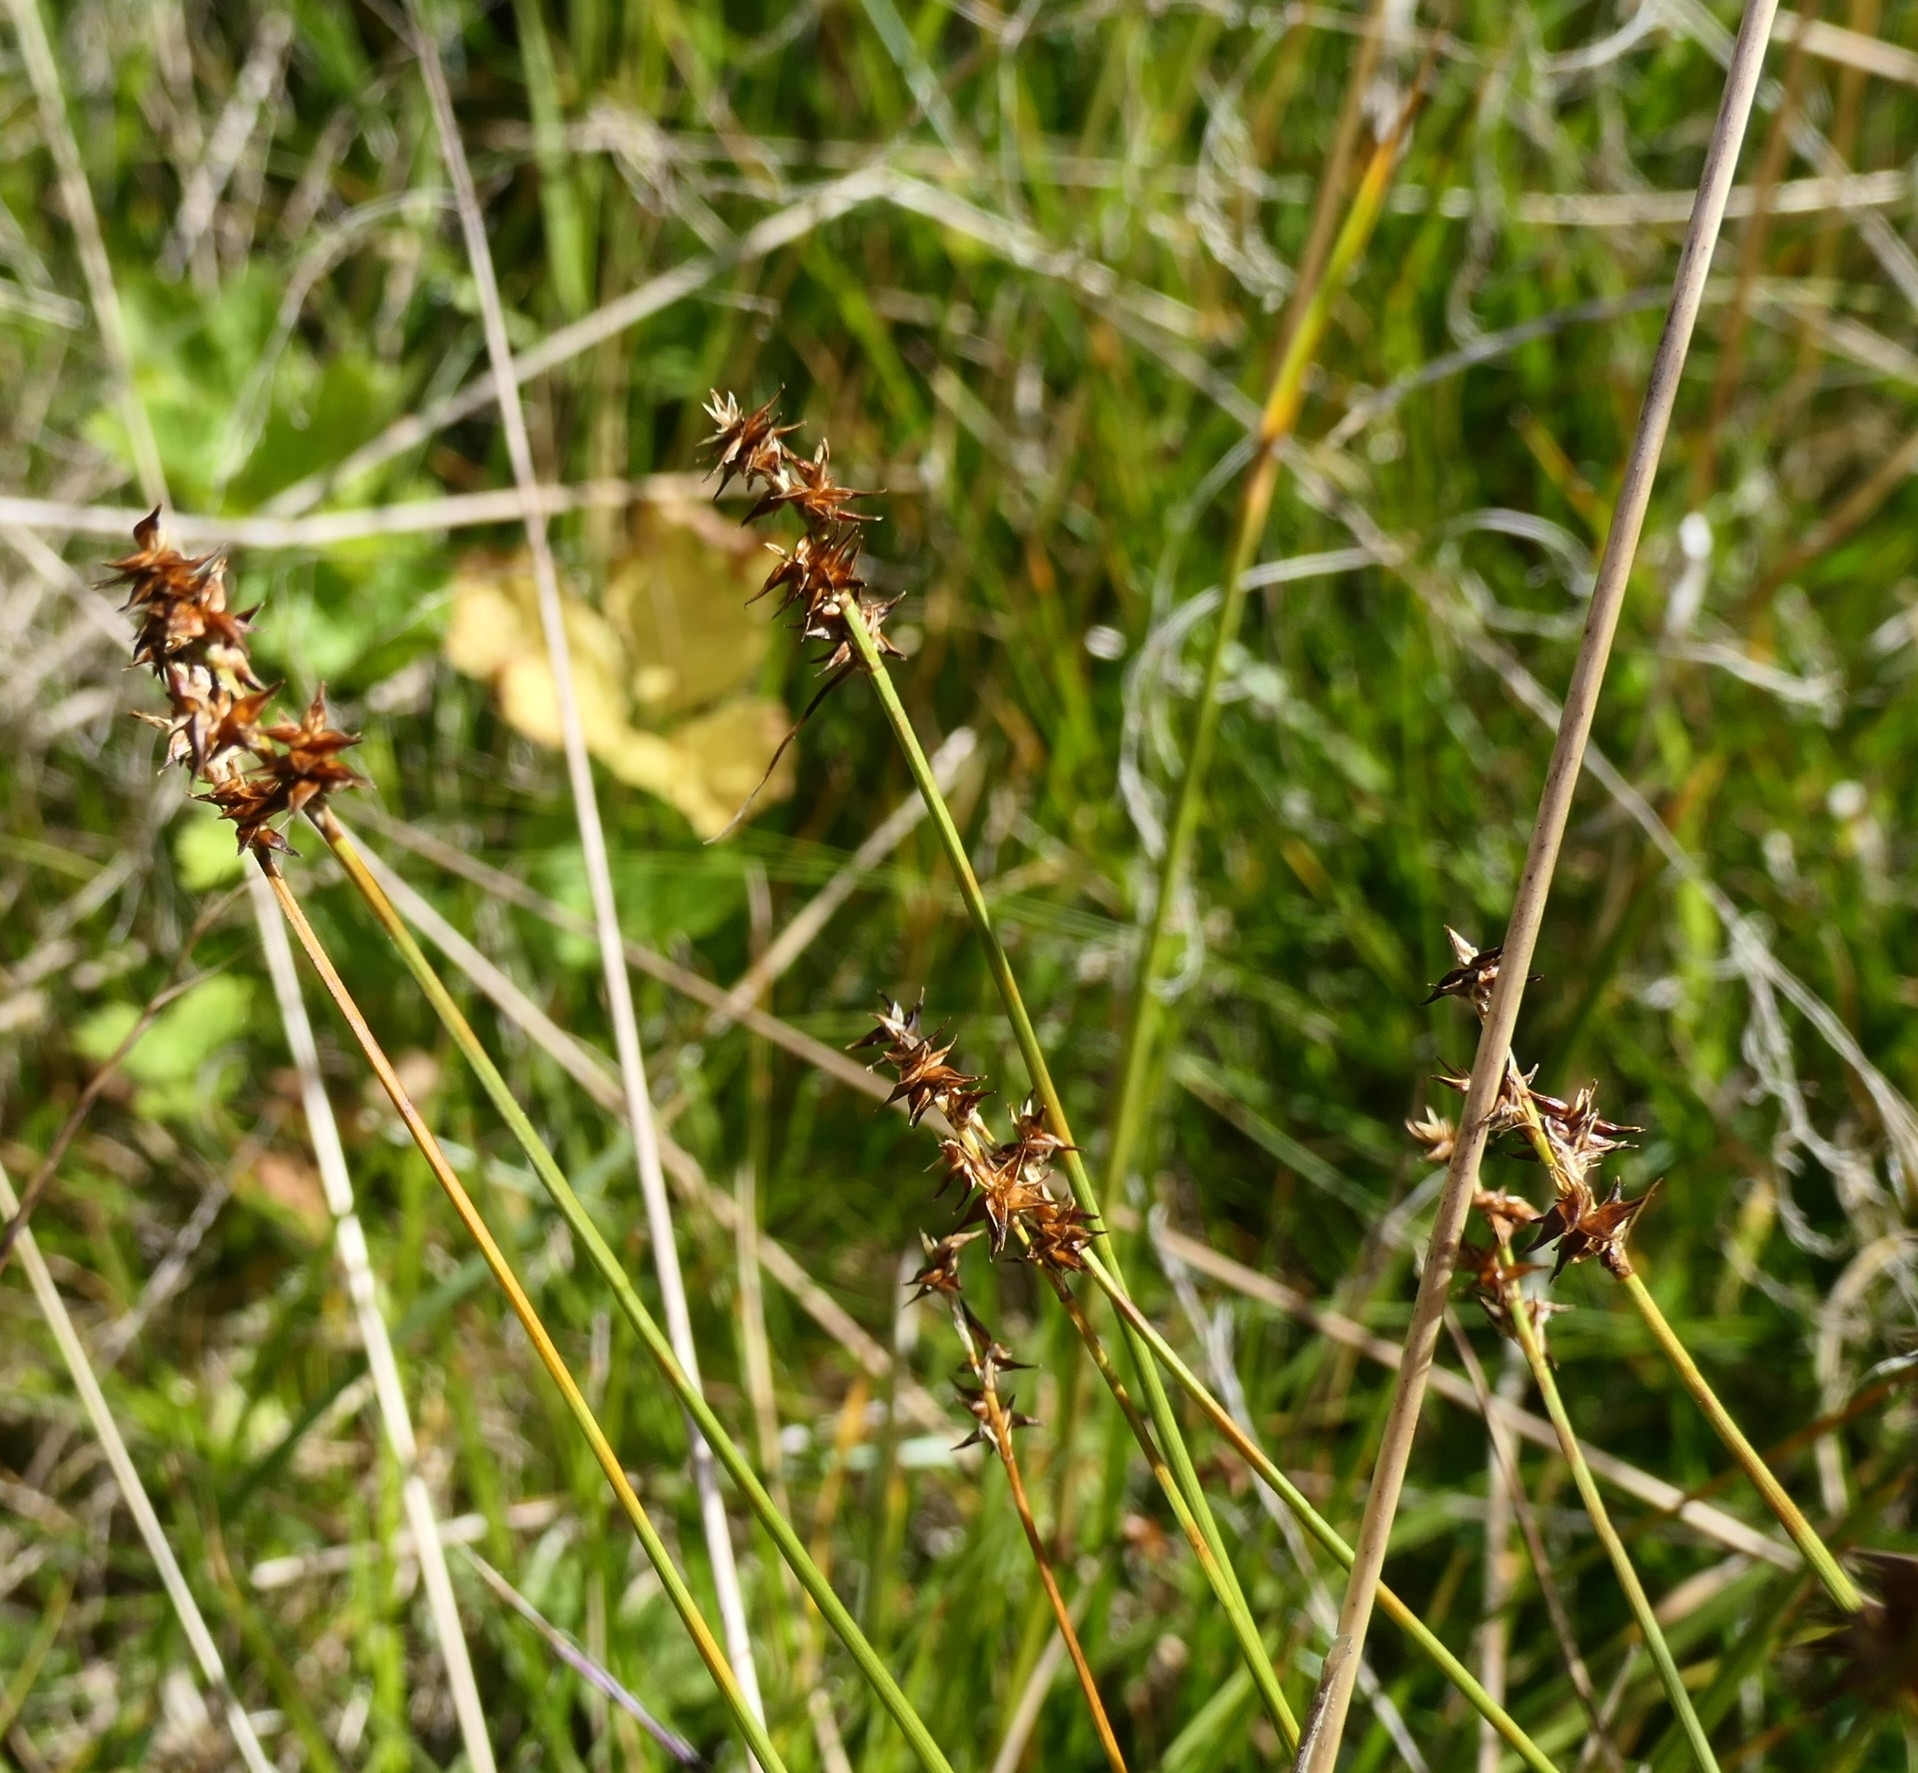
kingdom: Plantae
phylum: Tracheophyta
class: Liliopsida
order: Poales
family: Cyperaceae
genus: Carex
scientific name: Carex echinata
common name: Star sedge
